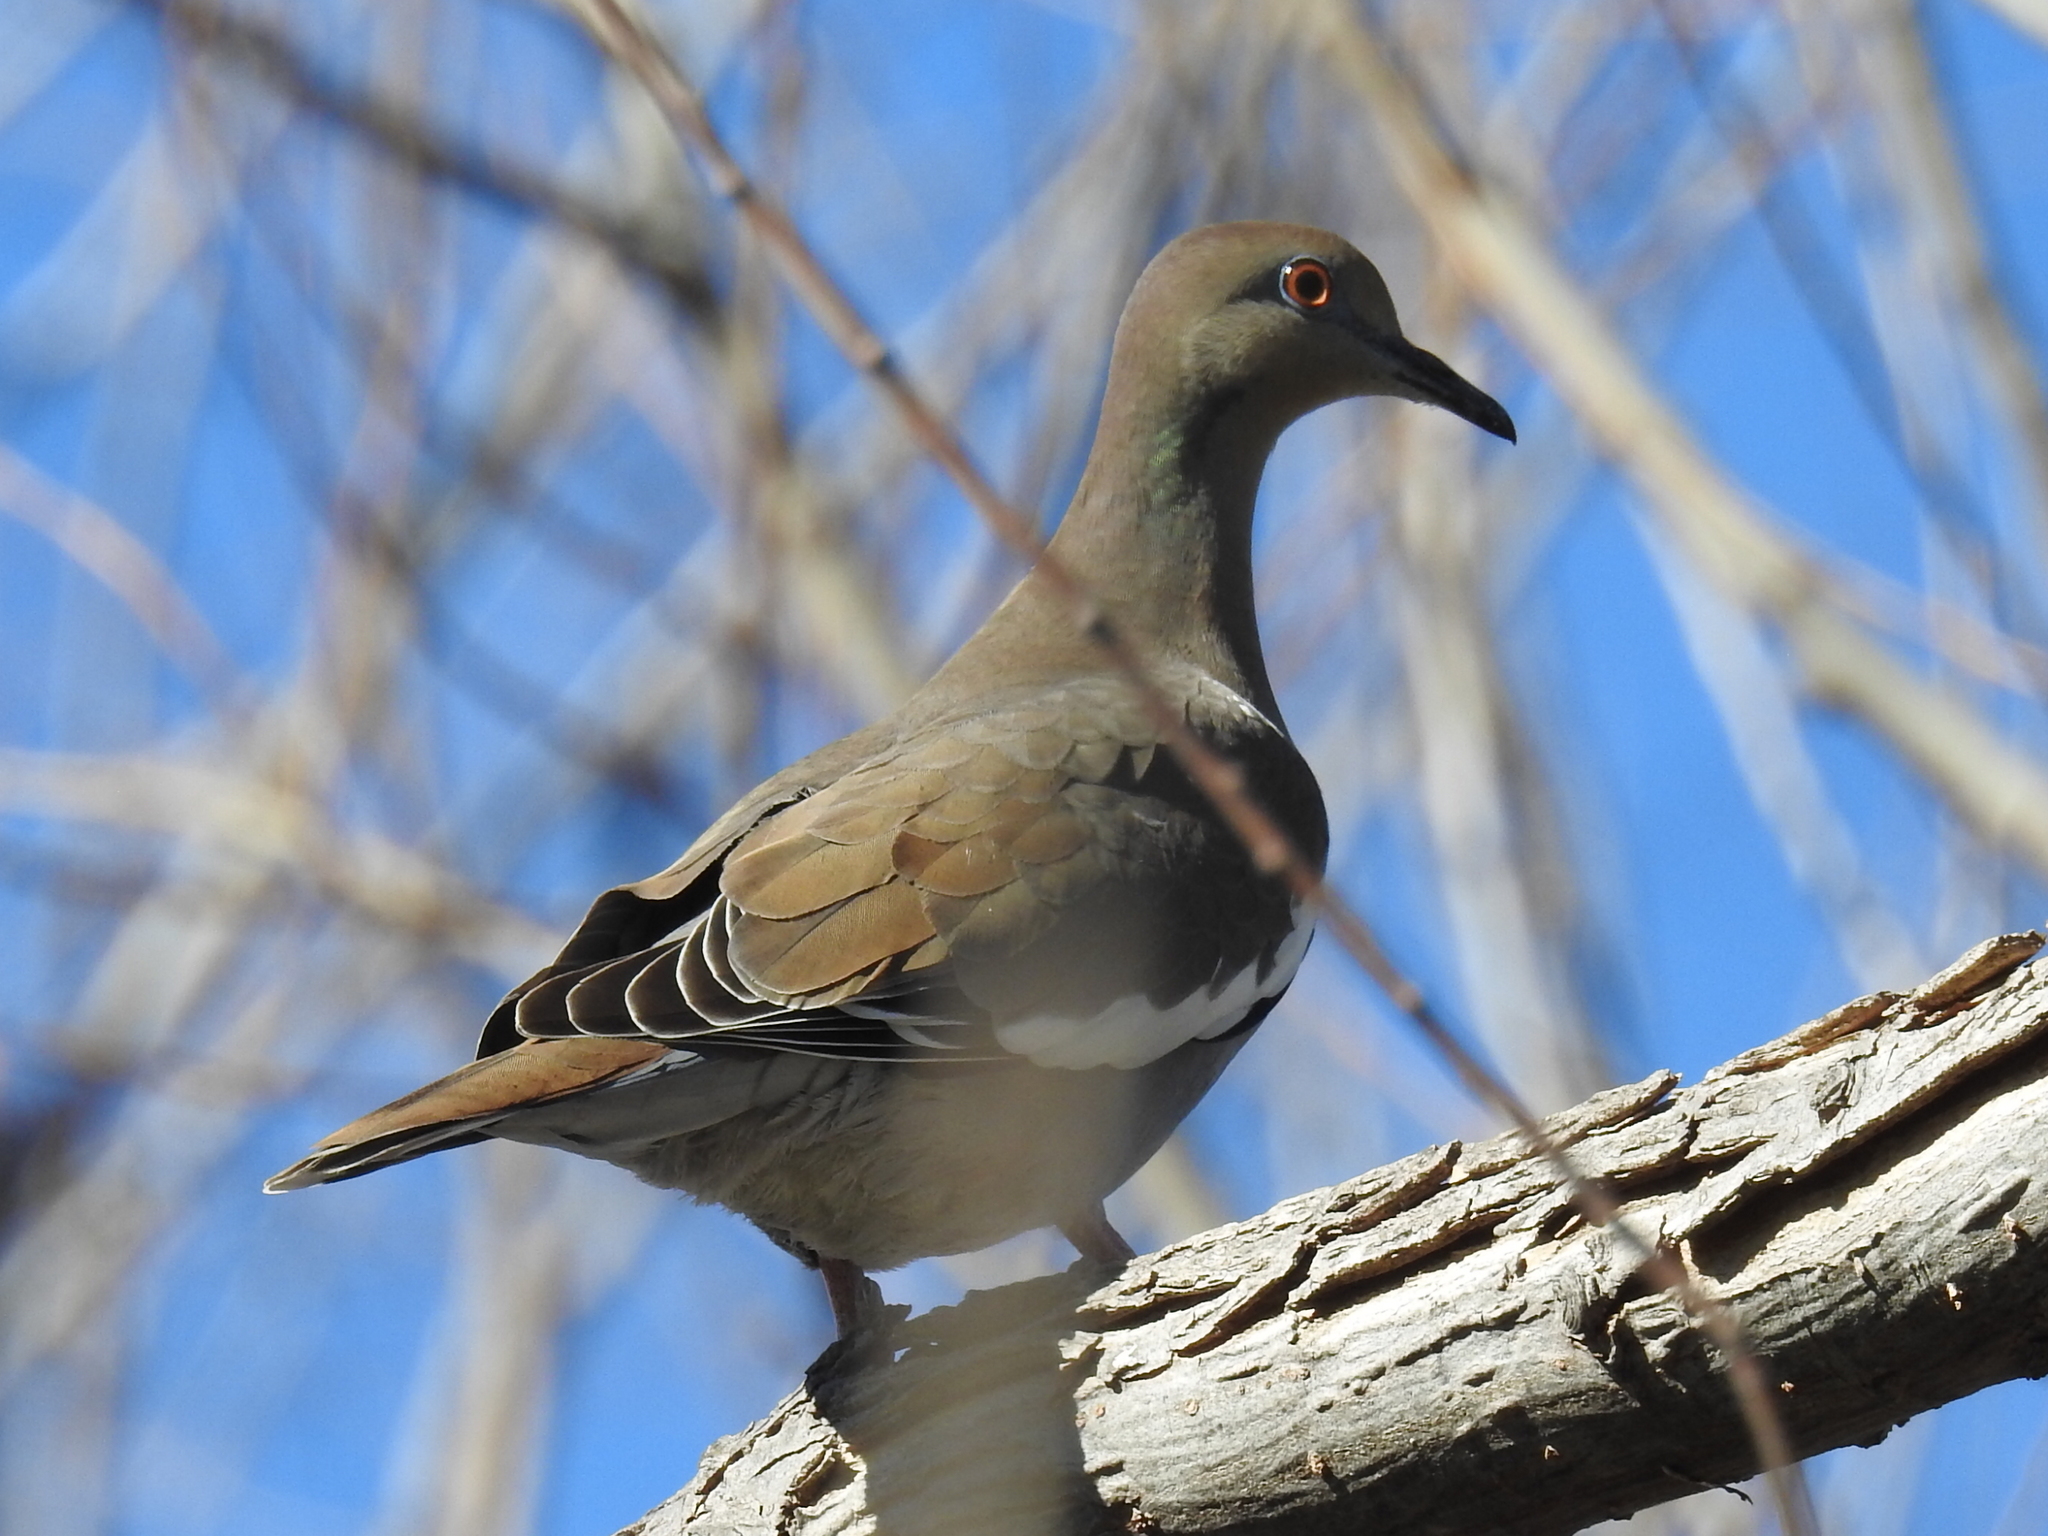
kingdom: Animalia
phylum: Chordata
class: Aves
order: Columbiformes
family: Columbidae
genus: Zenaida
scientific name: Zenaida asiatica
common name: White-winged dove
